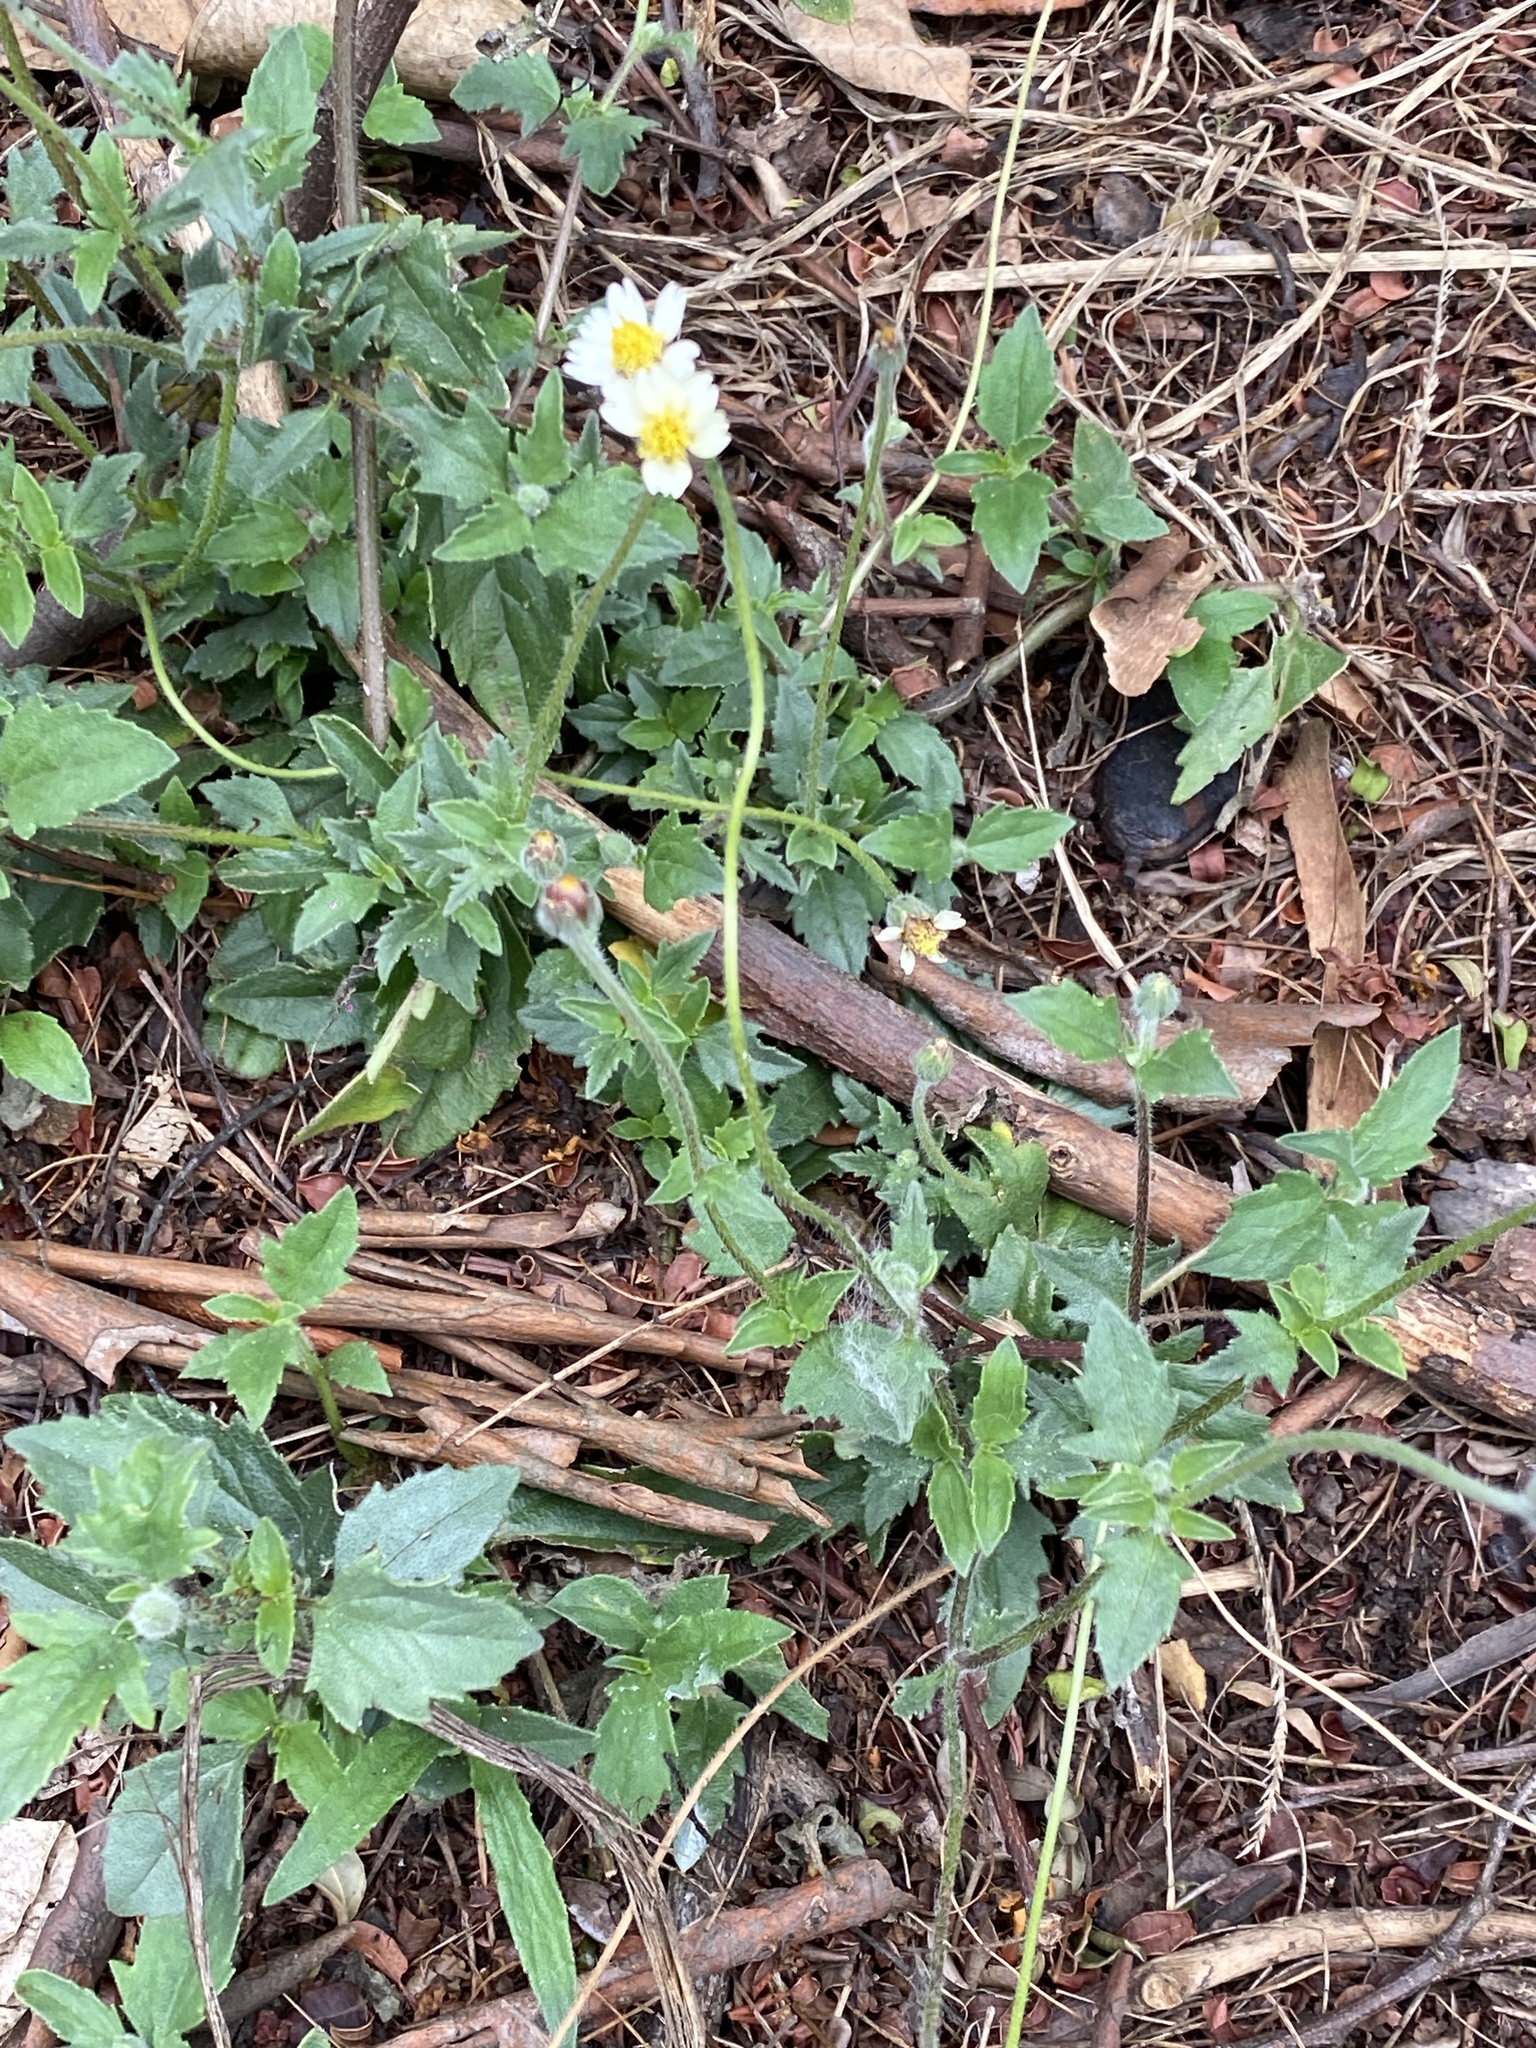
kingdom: Plantae
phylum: Tracheophyta
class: Magnoliopsida
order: Asterales
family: Asteraceae
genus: Tridax
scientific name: Tridax procumbens
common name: Coatbuttons
